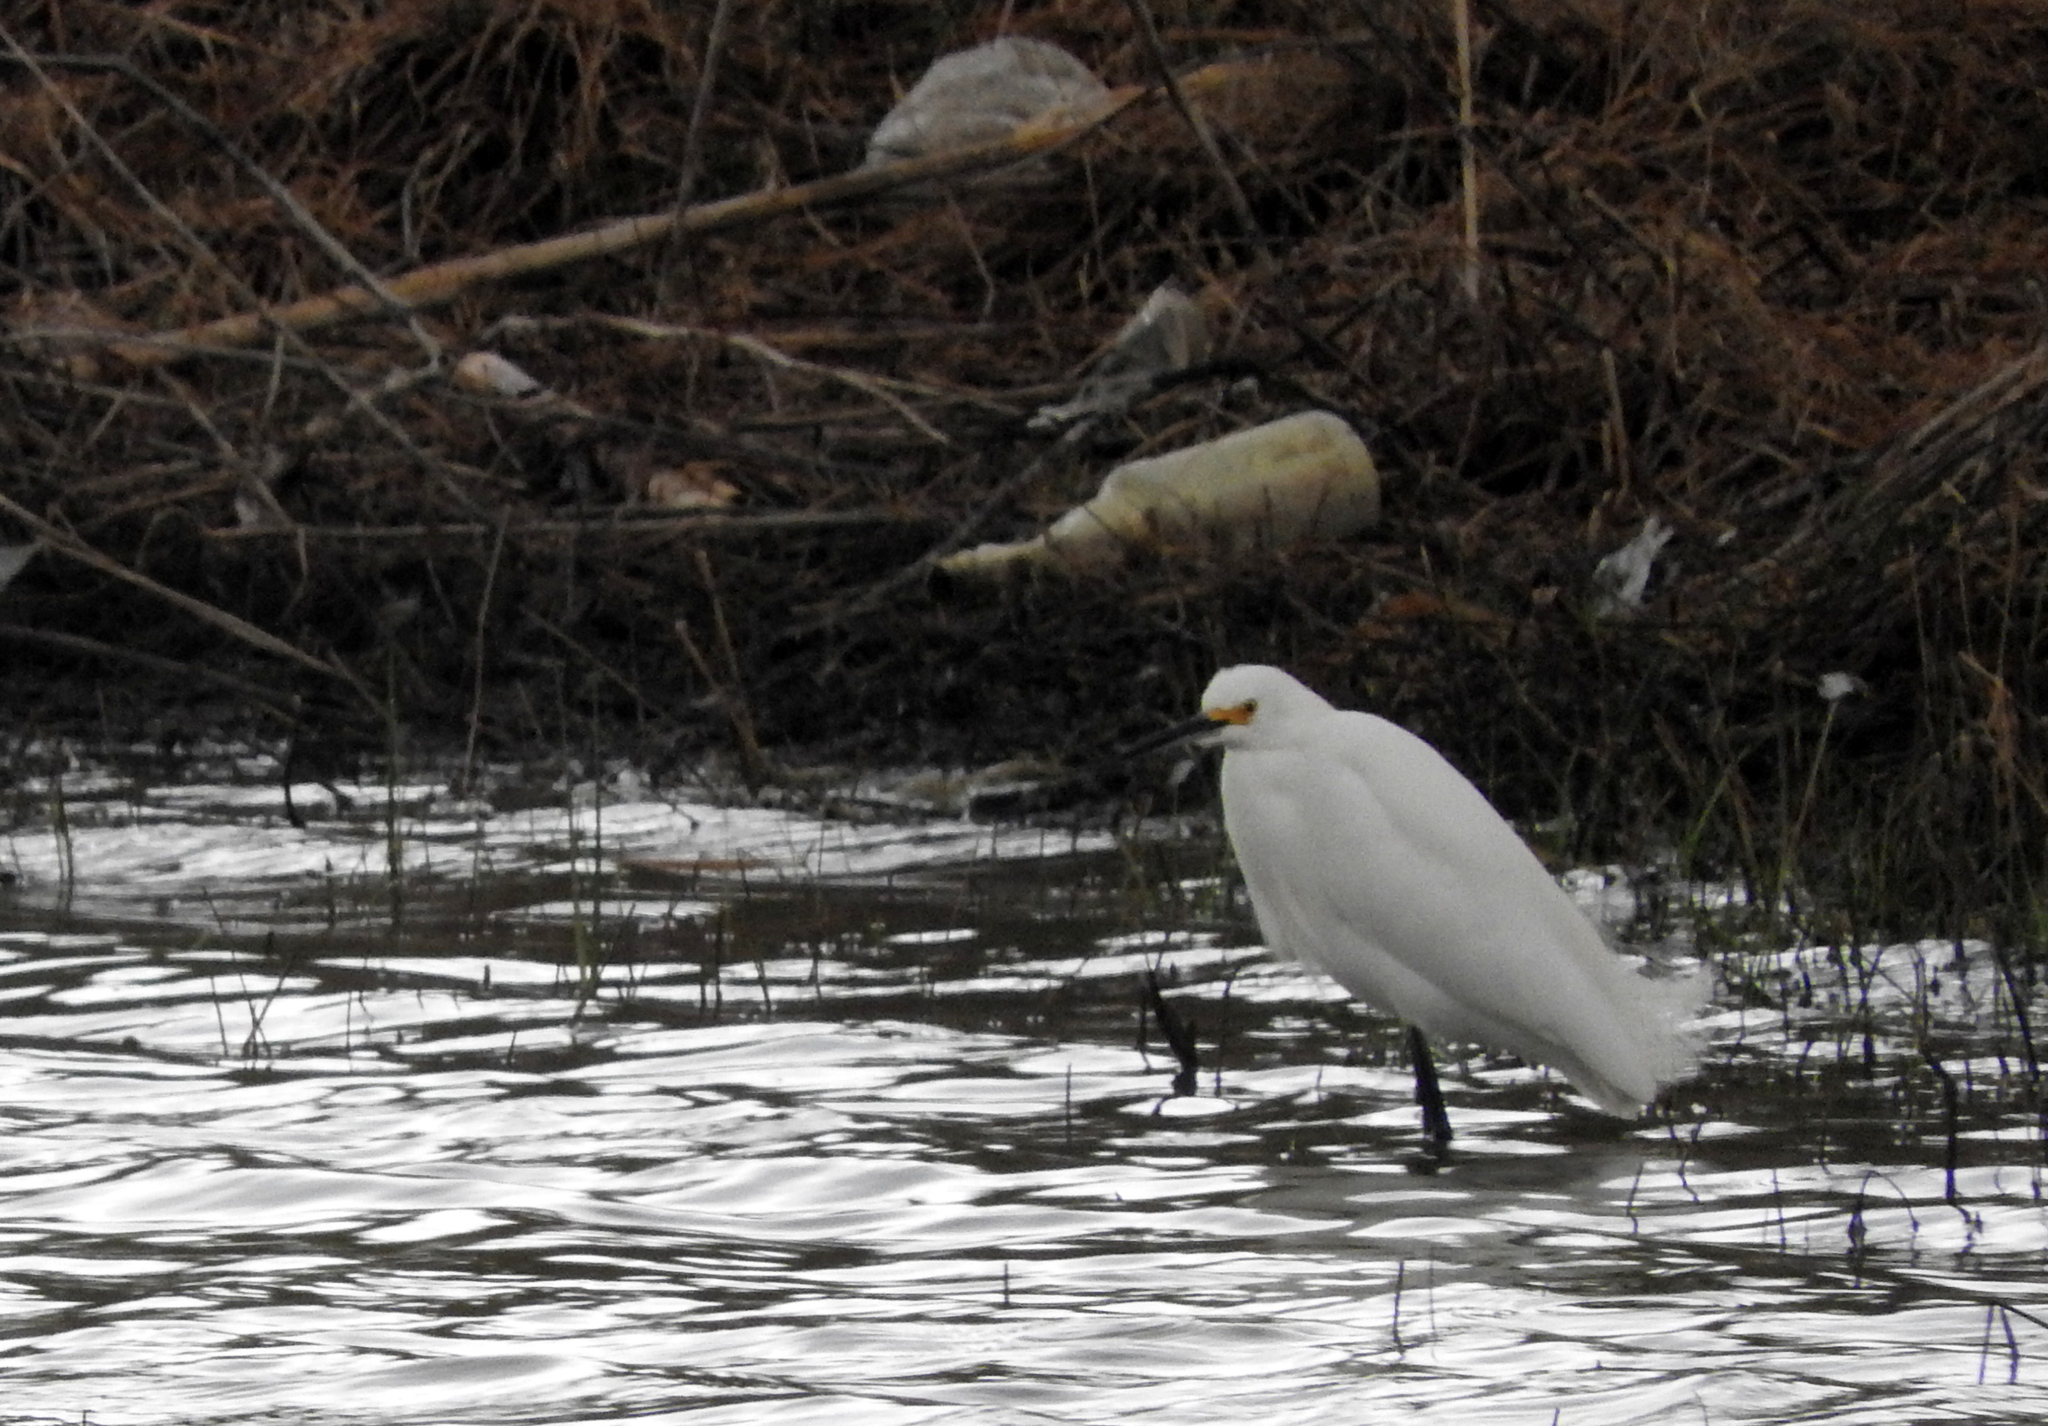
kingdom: Animalia
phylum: Chordata
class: Aves
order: Pelecaniformes
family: Ardeidae
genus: Egretta
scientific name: Egretta thula
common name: Snowy egret
